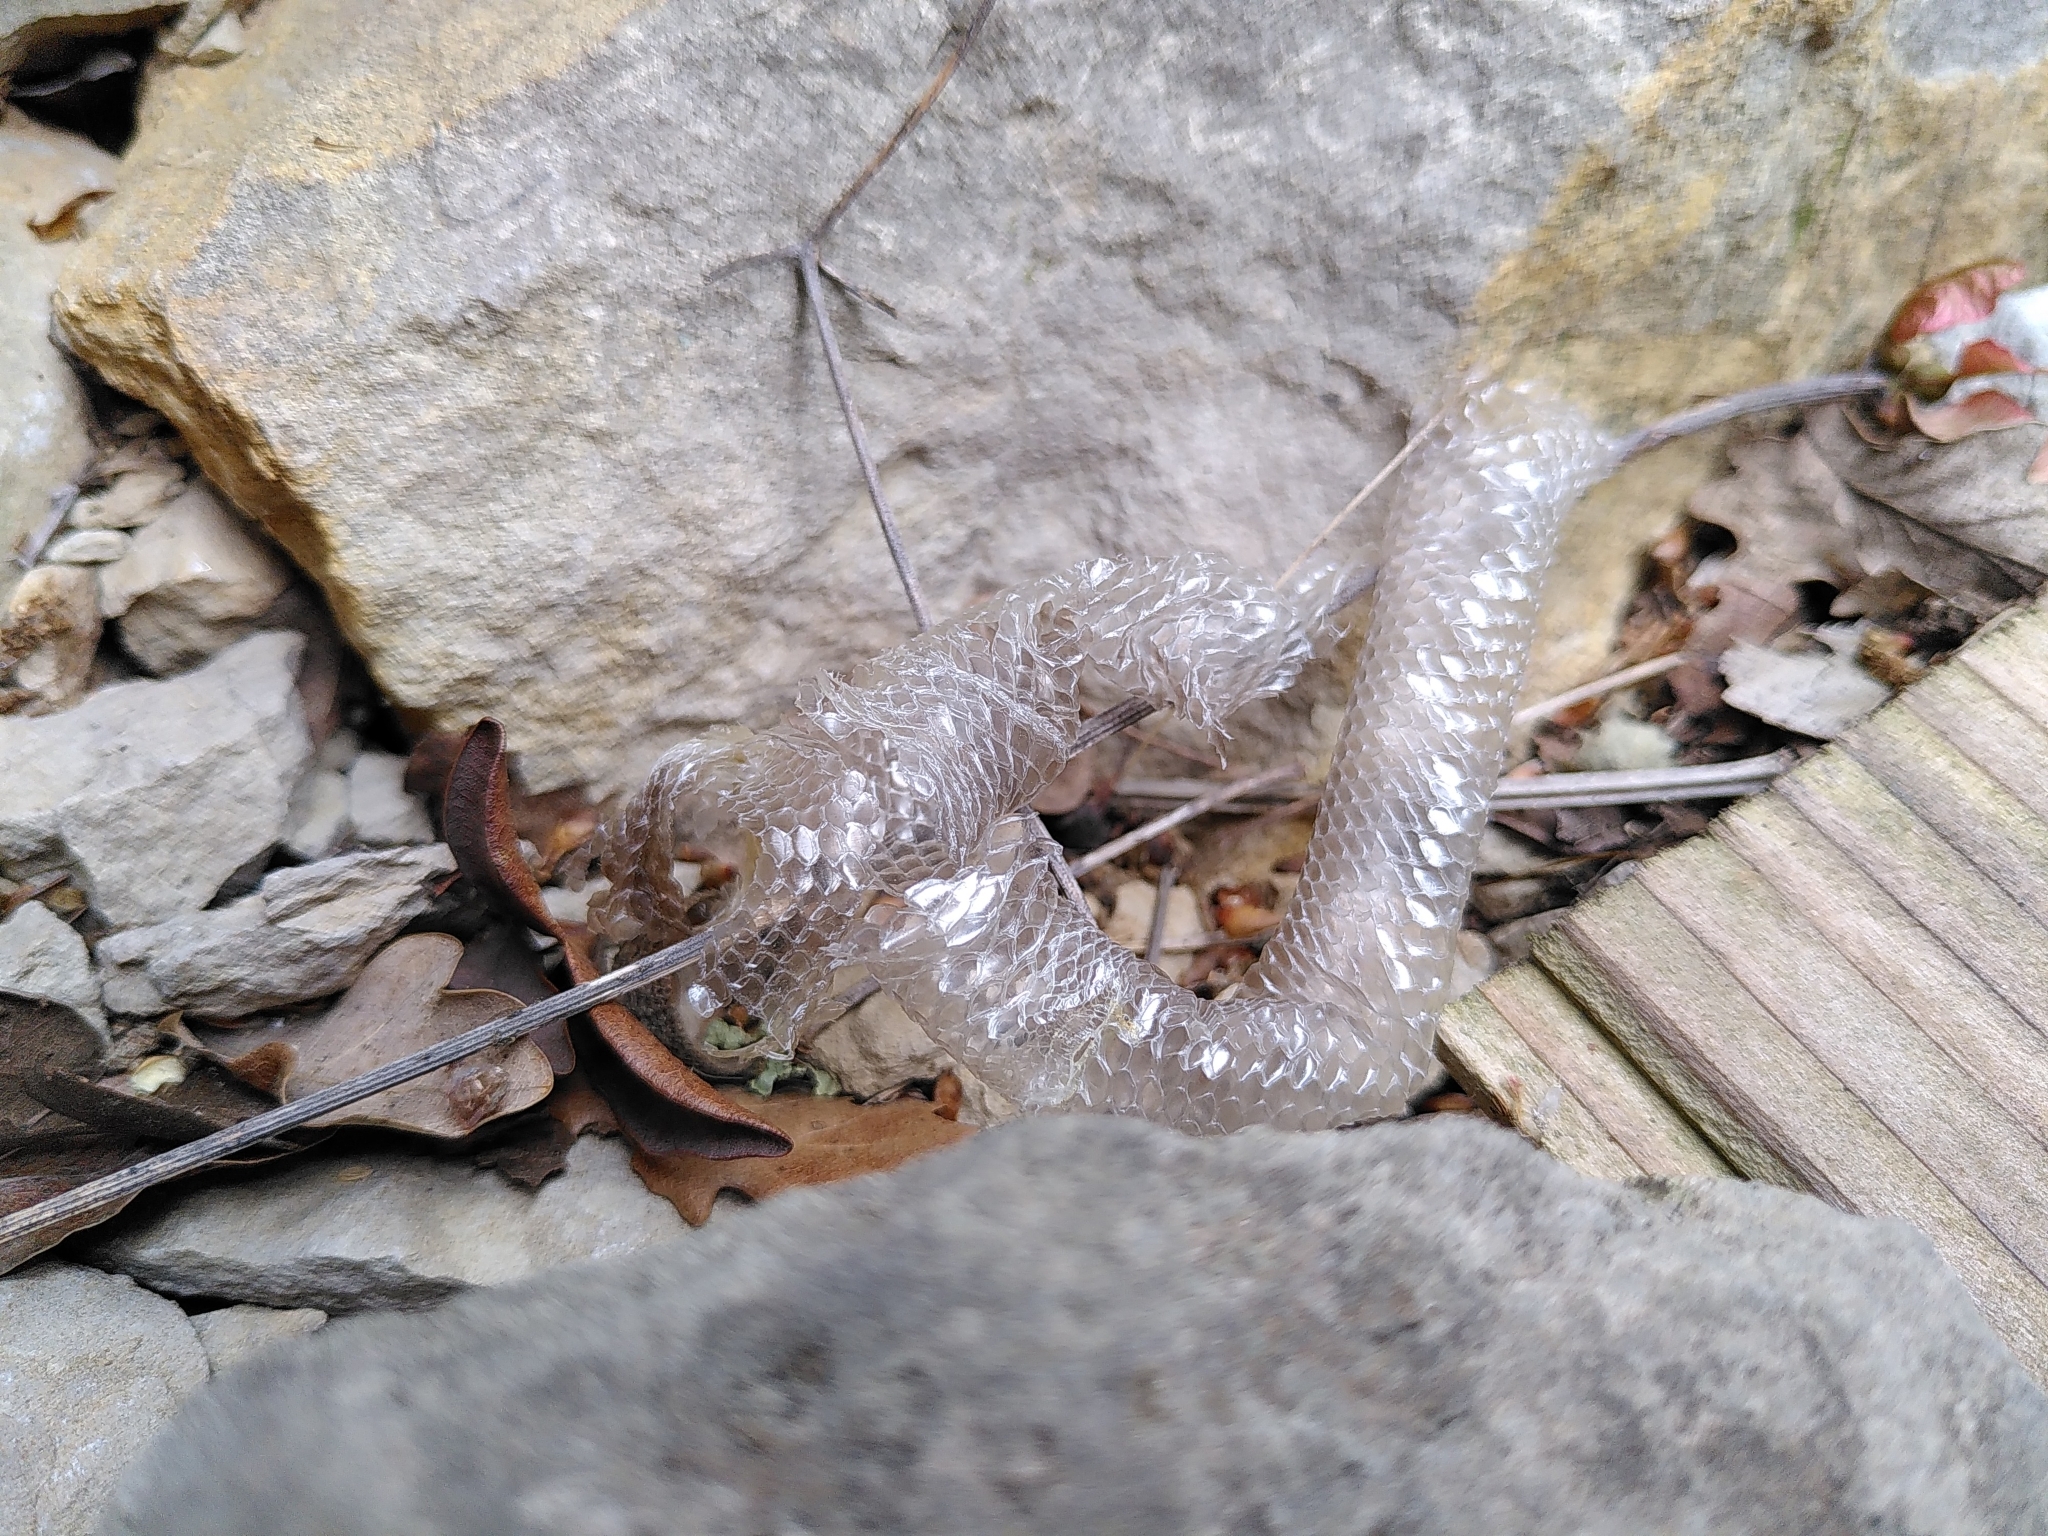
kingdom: Animalia
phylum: Chordata
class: Squamata
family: Anguidae
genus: Anguis
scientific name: Anguis fragilis
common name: Slow worm
